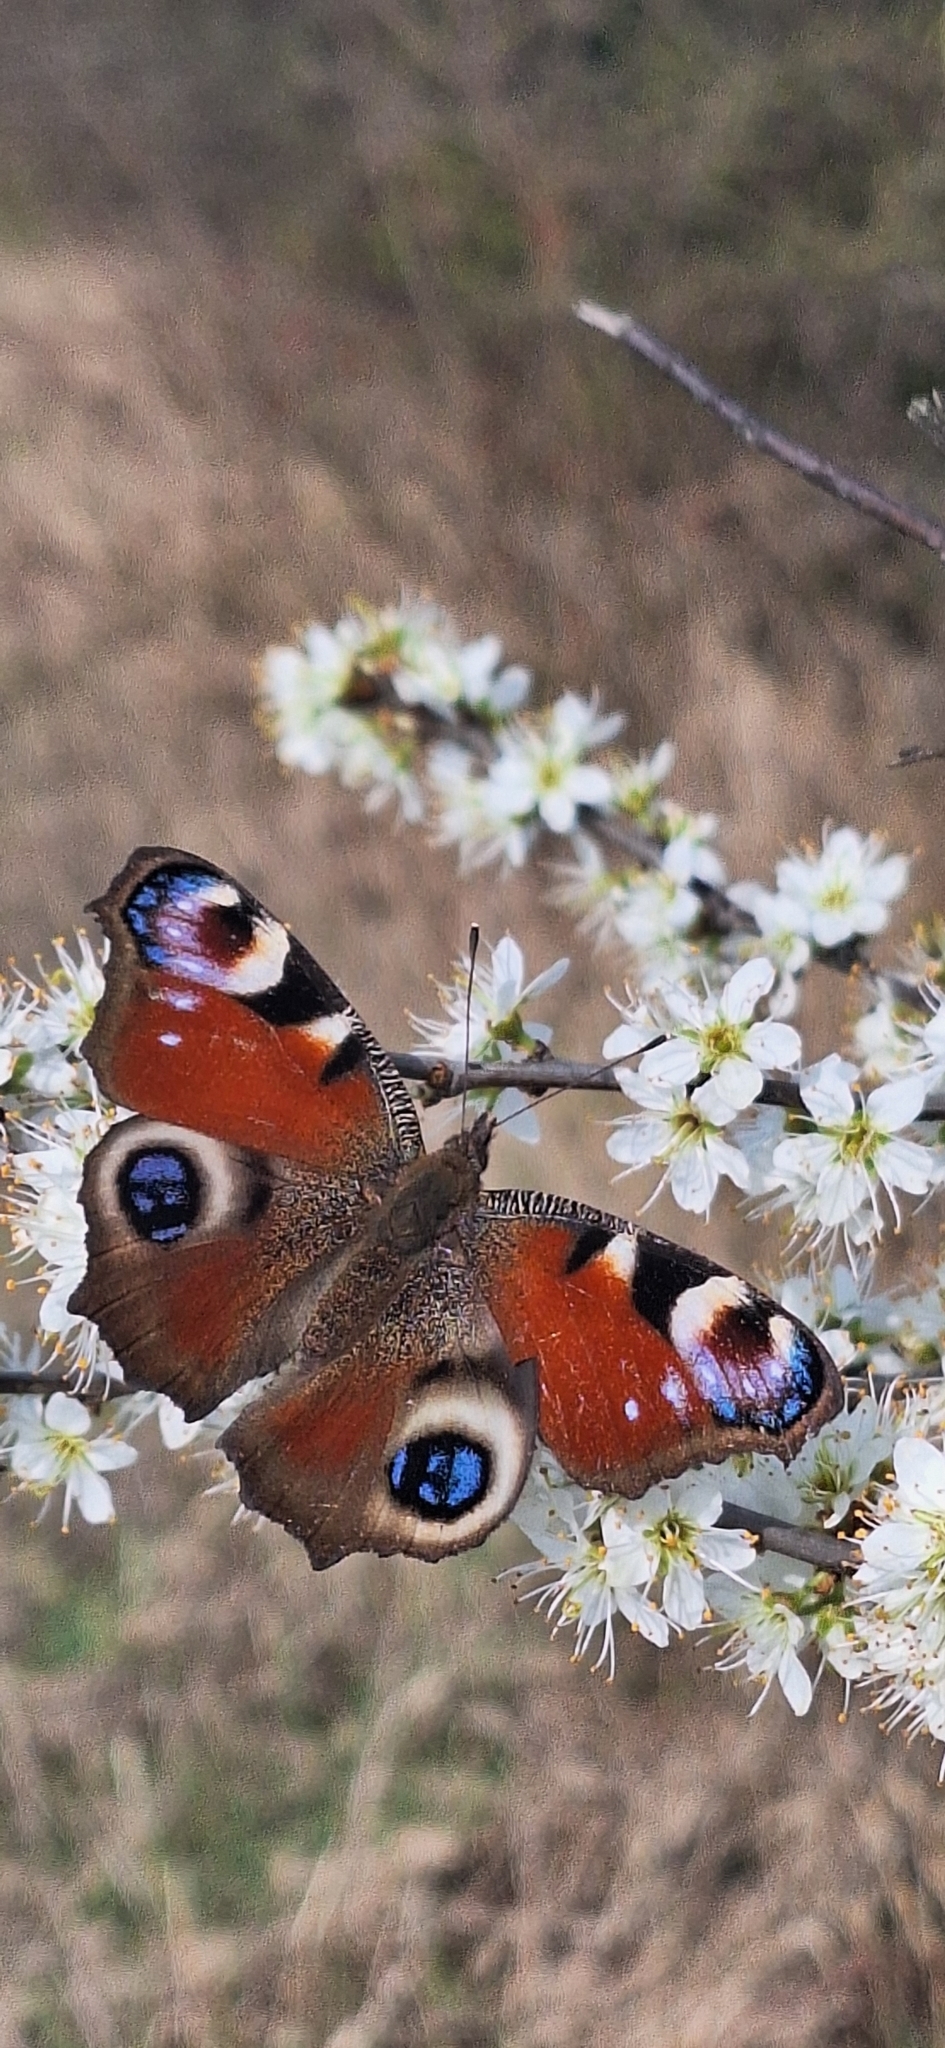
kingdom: Animalia
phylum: Arthropoda
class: Insecta
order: Lepidoptera
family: Nymphalidae
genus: Aglais
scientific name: Aglais io
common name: Peacock
